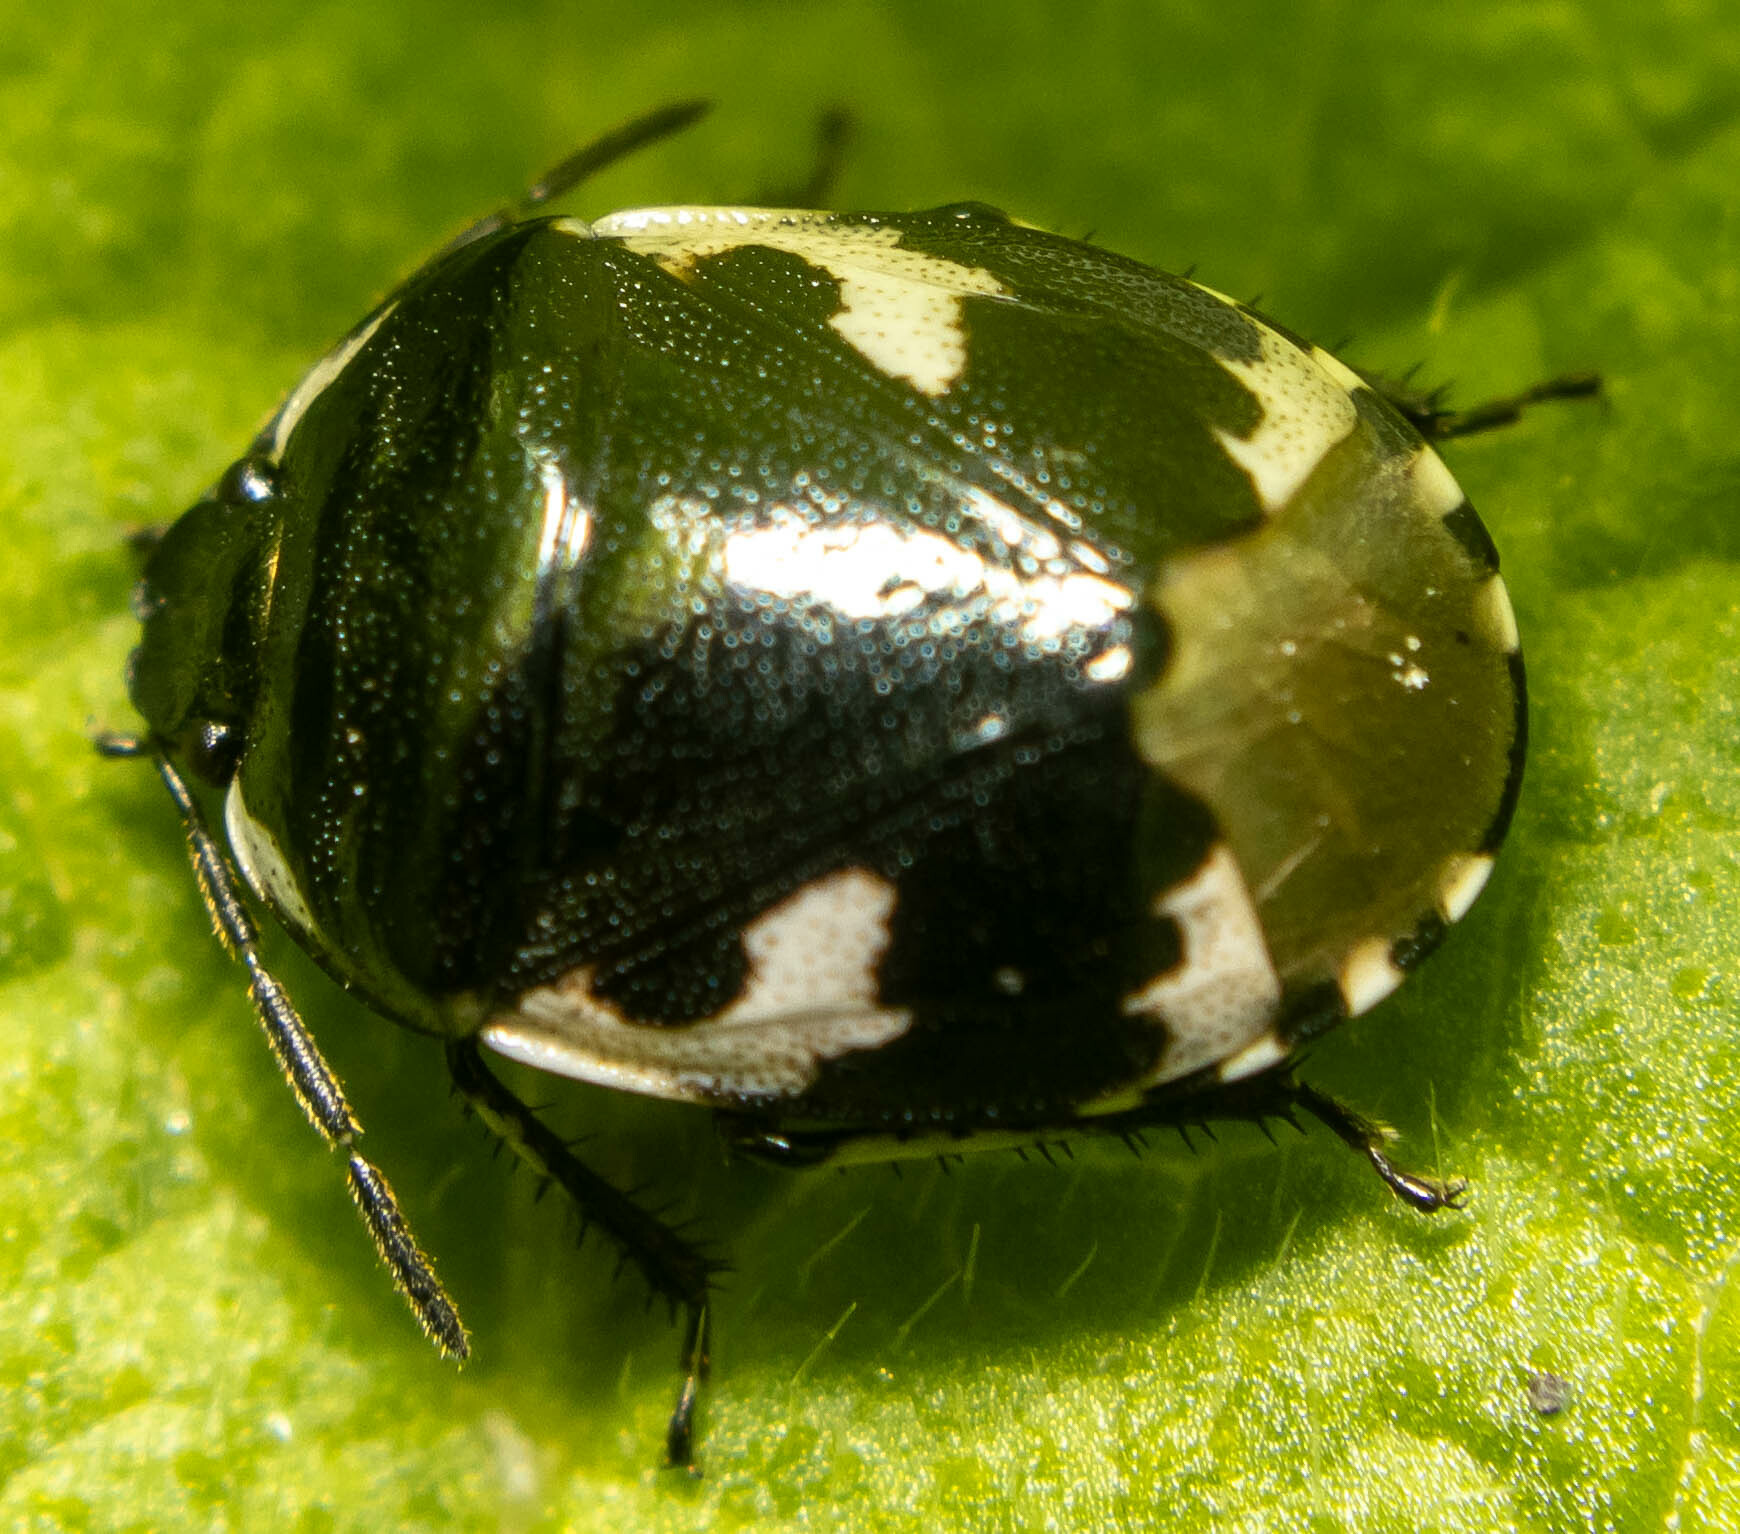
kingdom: Animalia
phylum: Arthropoda
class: Insecta
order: Hemiptera
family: Cydnidae
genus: Tritomegas
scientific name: Tritomegas bicolor
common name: Pied shieldbug
